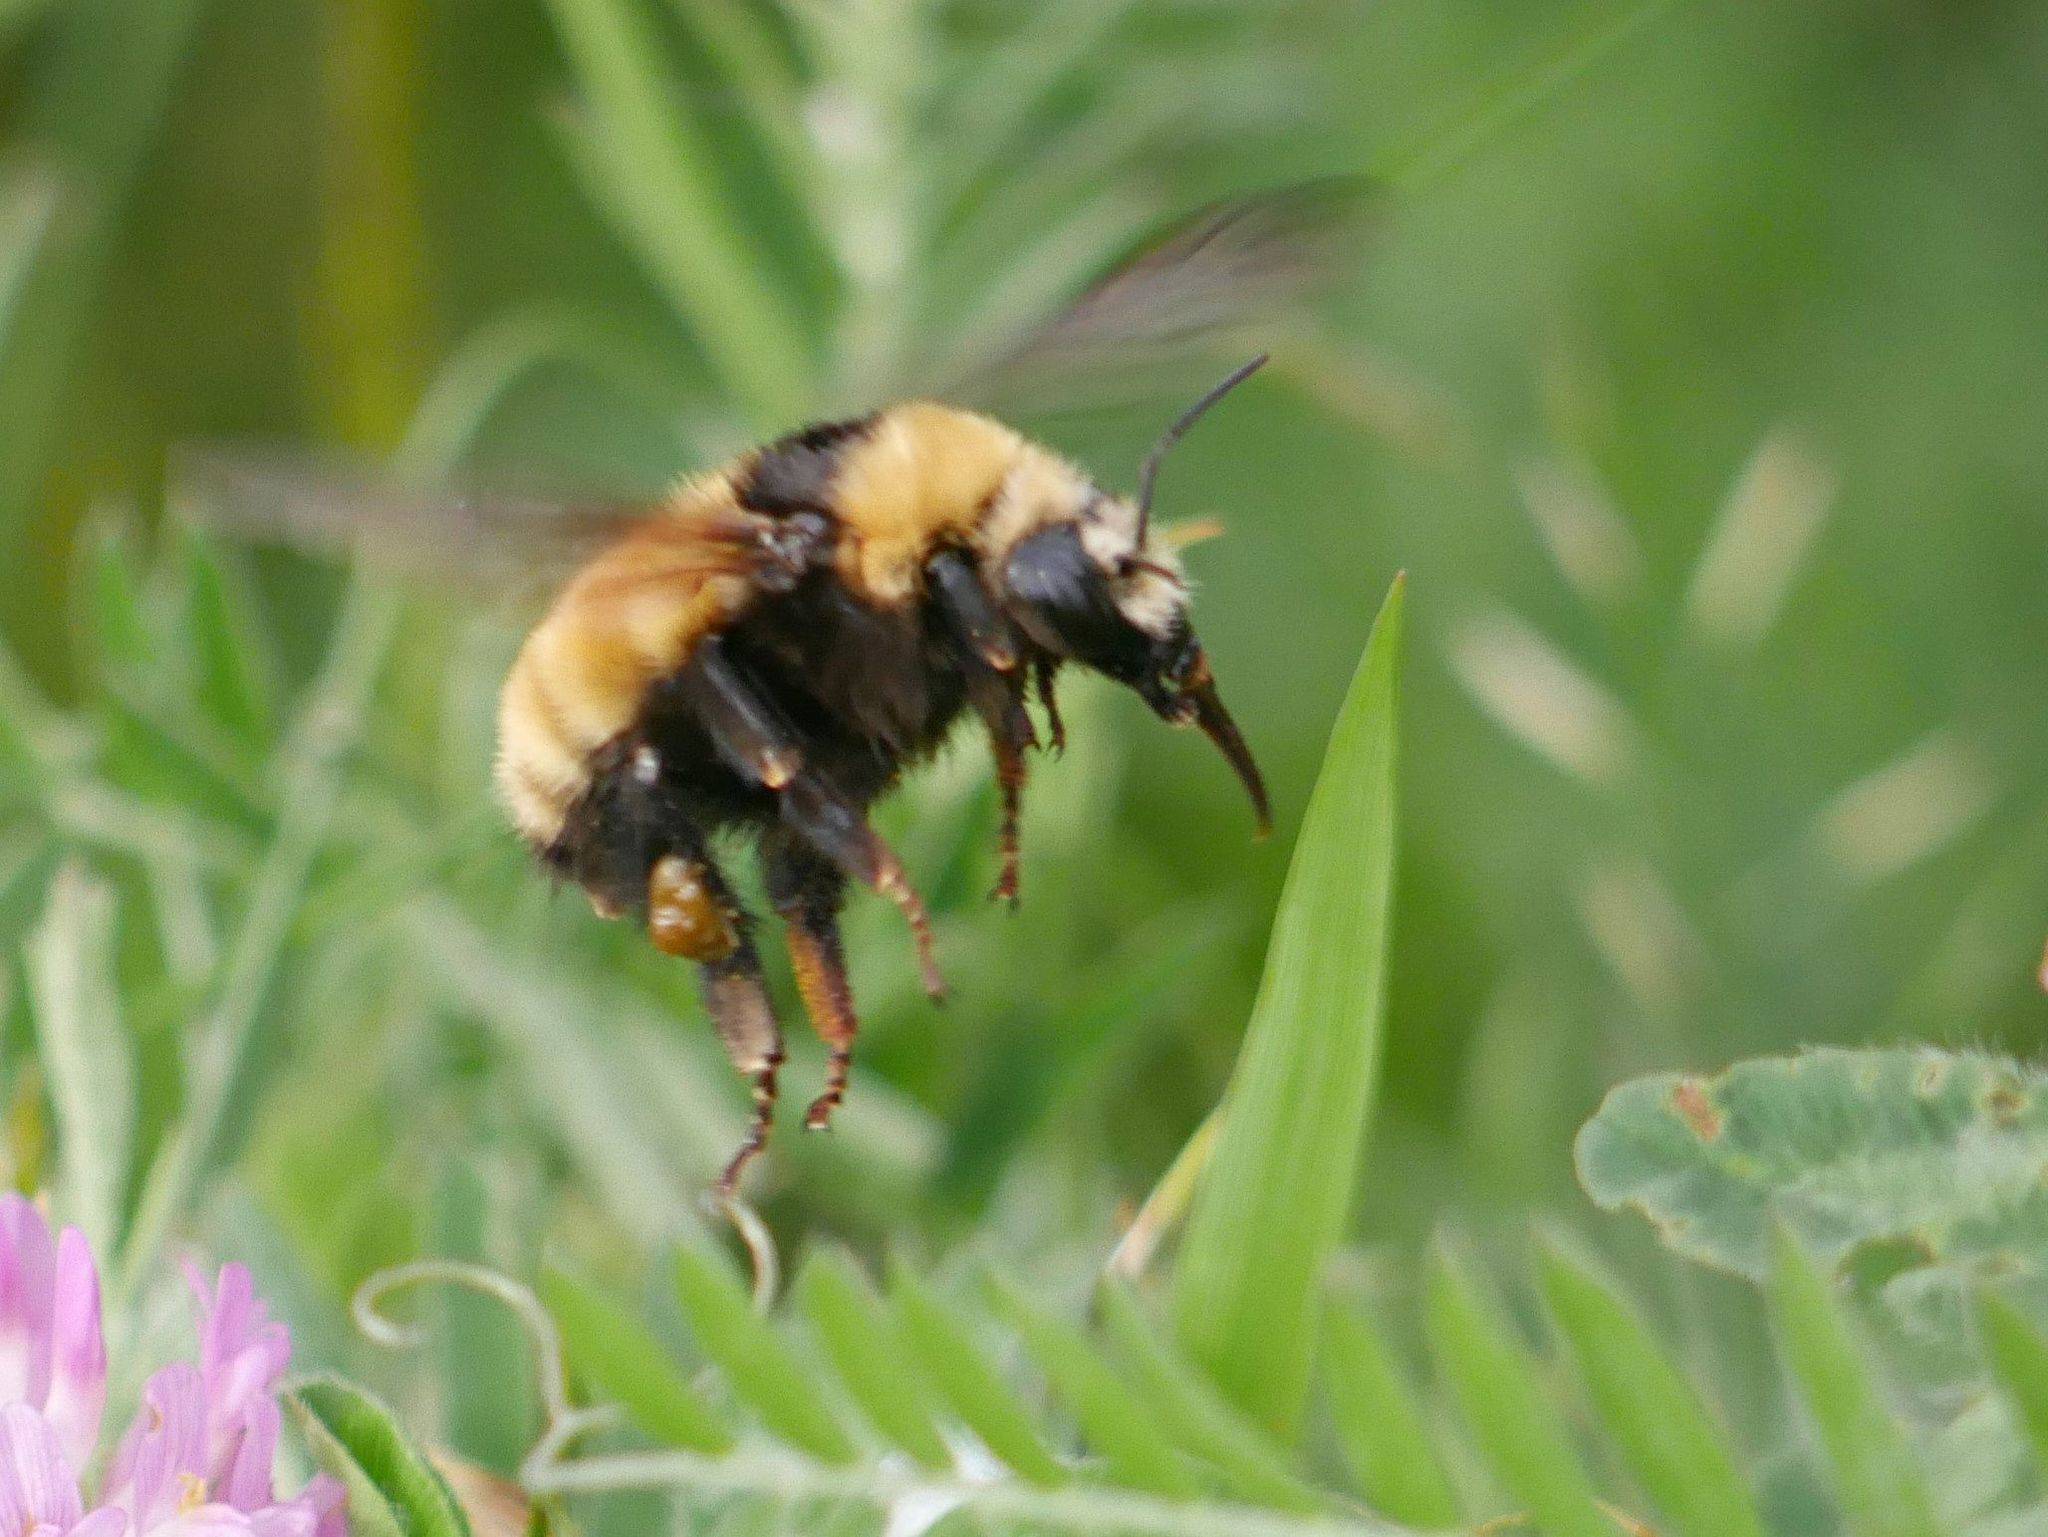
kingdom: Animalia
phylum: Arthropoda
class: Insecta
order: Hymenoptera
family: Apidae
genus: Bombus
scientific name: Bombus borealis
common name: Northern amber bumble bee
